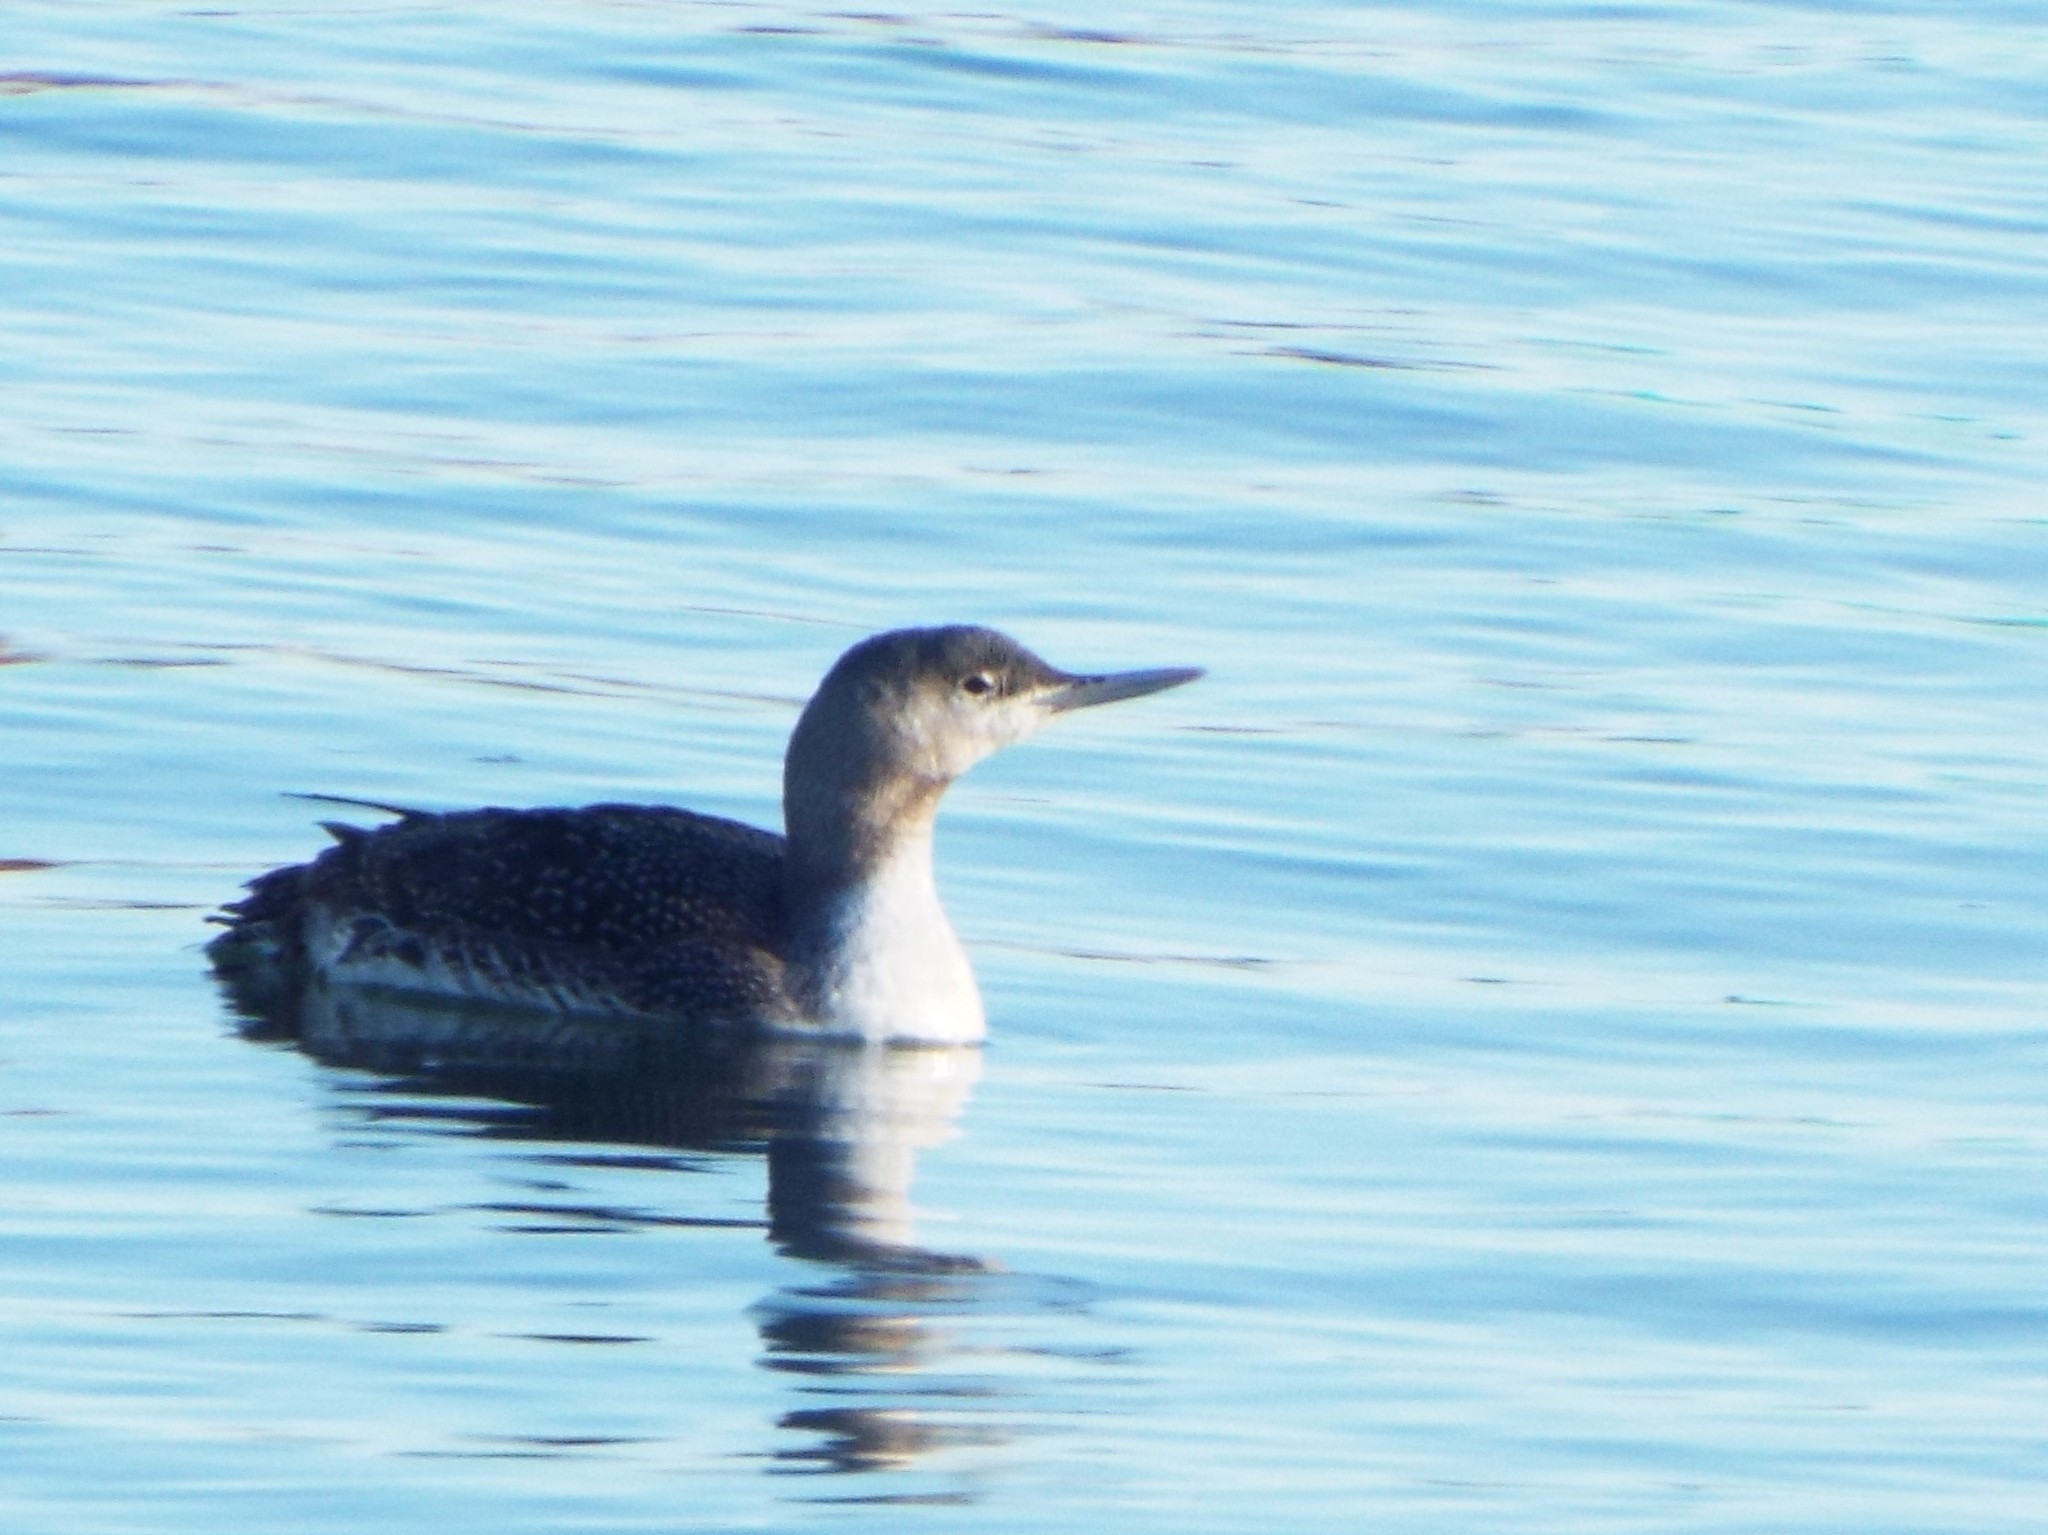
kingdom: Animalia
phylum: Chordata
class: Aves
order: Gaviiformes
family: Gaviidae
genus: Gavia
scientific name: Gavia stellata
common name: Red-throated loon
